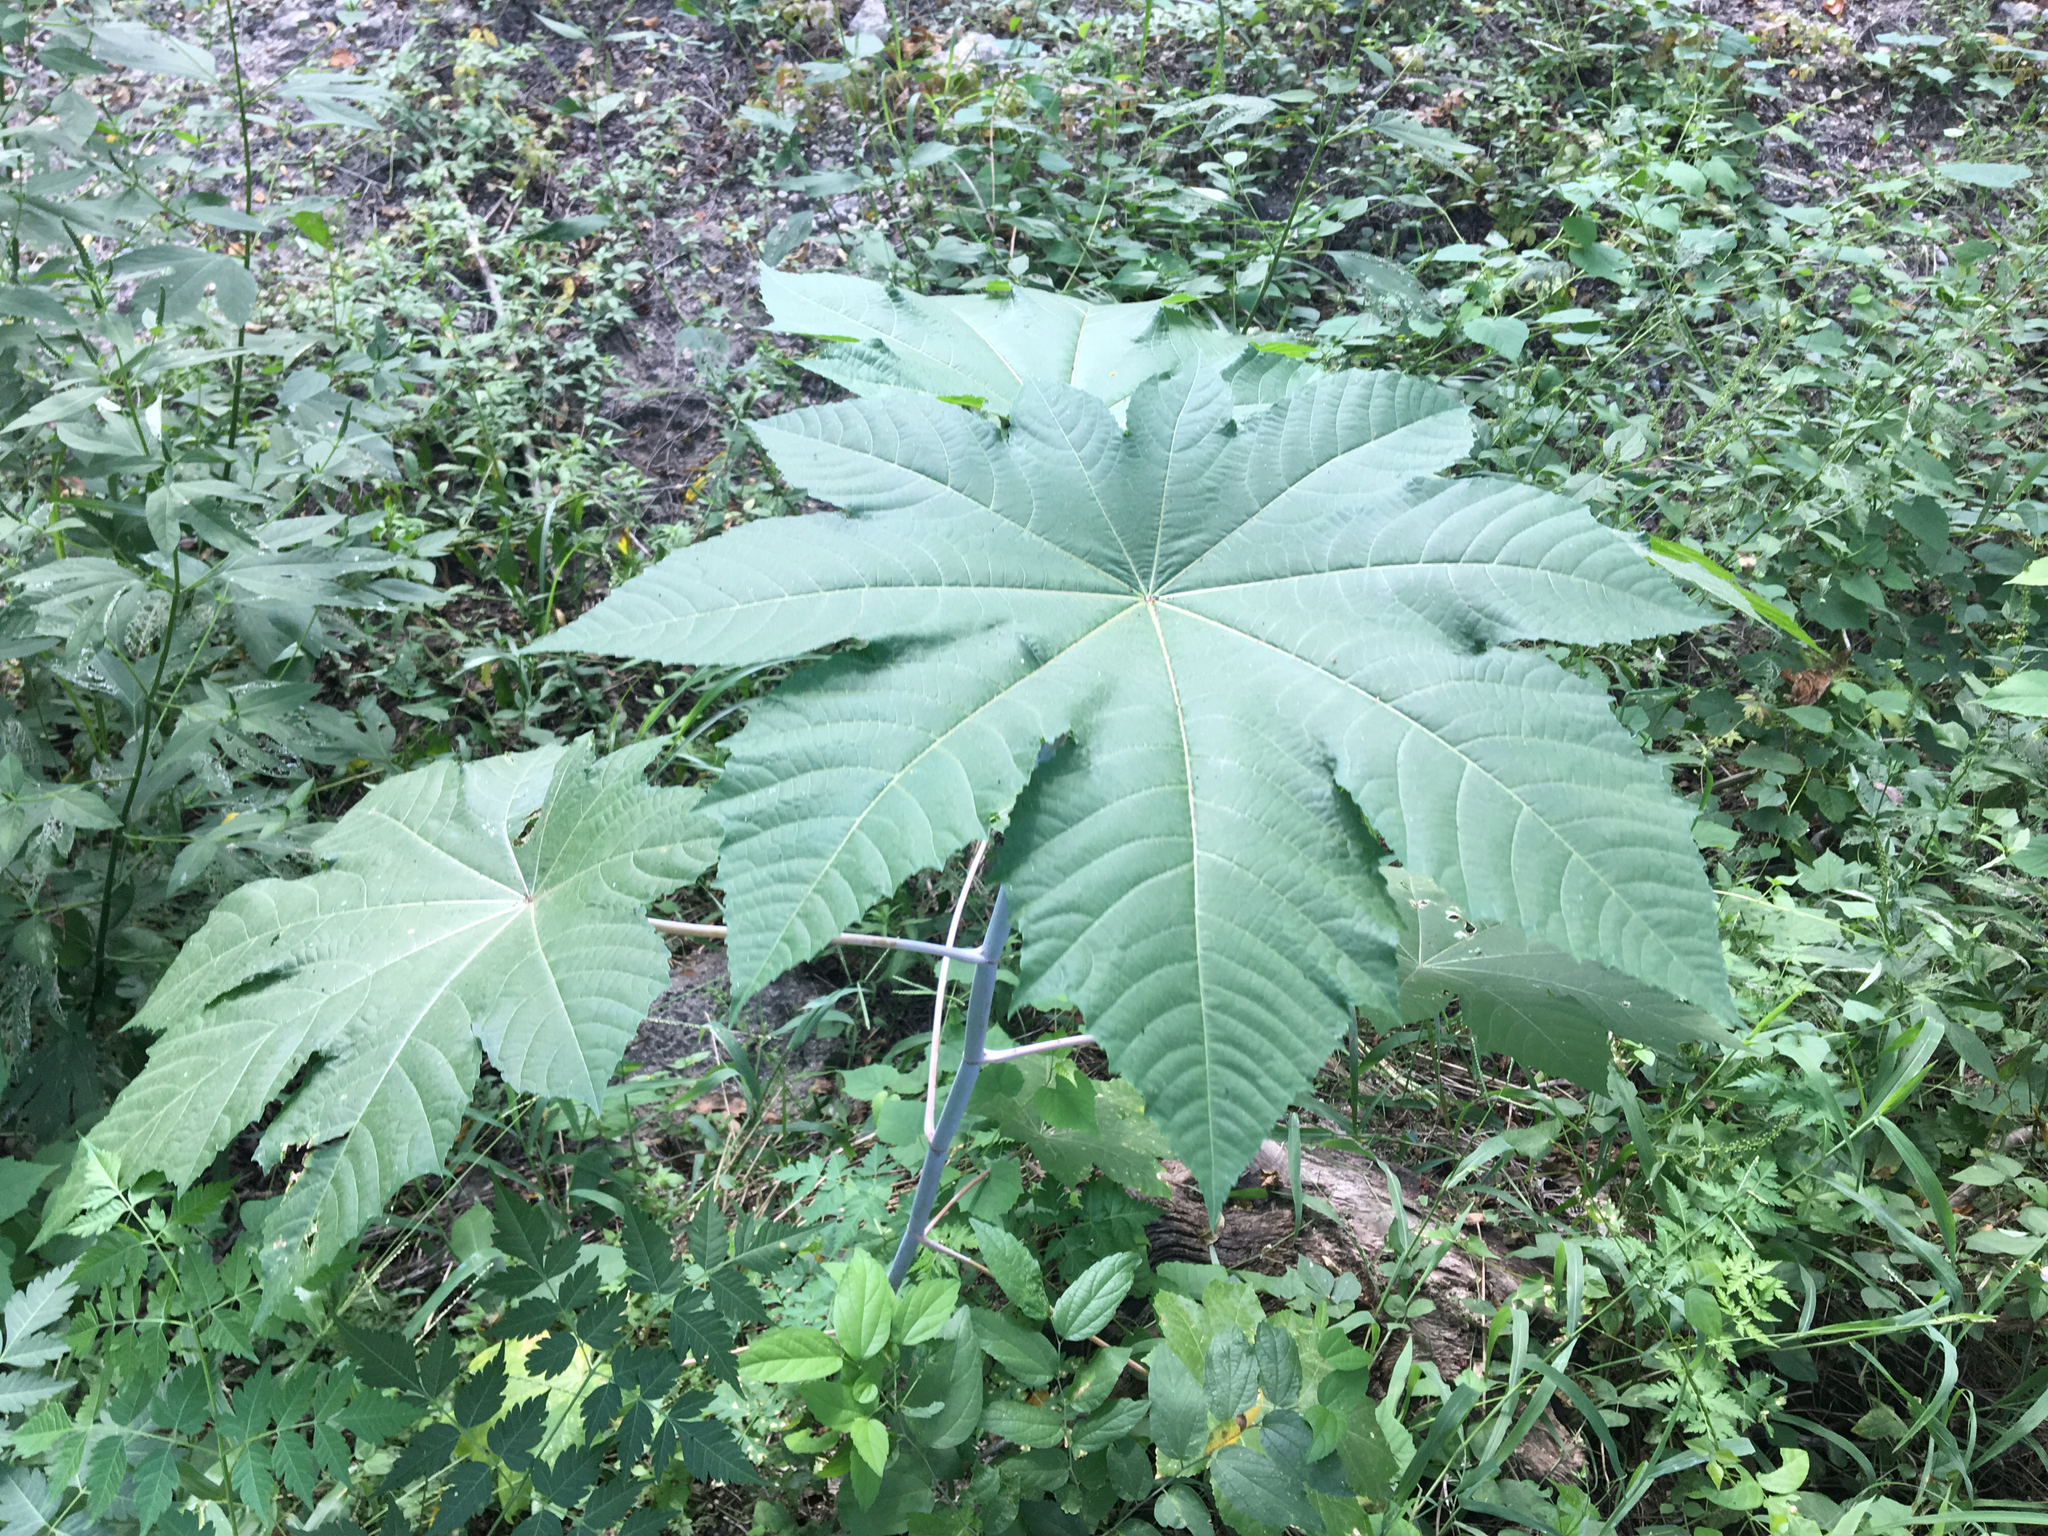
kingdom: Plantae
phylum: Tracheophyta
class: Magnoliopsida
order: Malpighiales
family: Euphorbiaceae
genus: Ricinus
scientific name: Ricinus communis
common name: Castor-oil-plant
